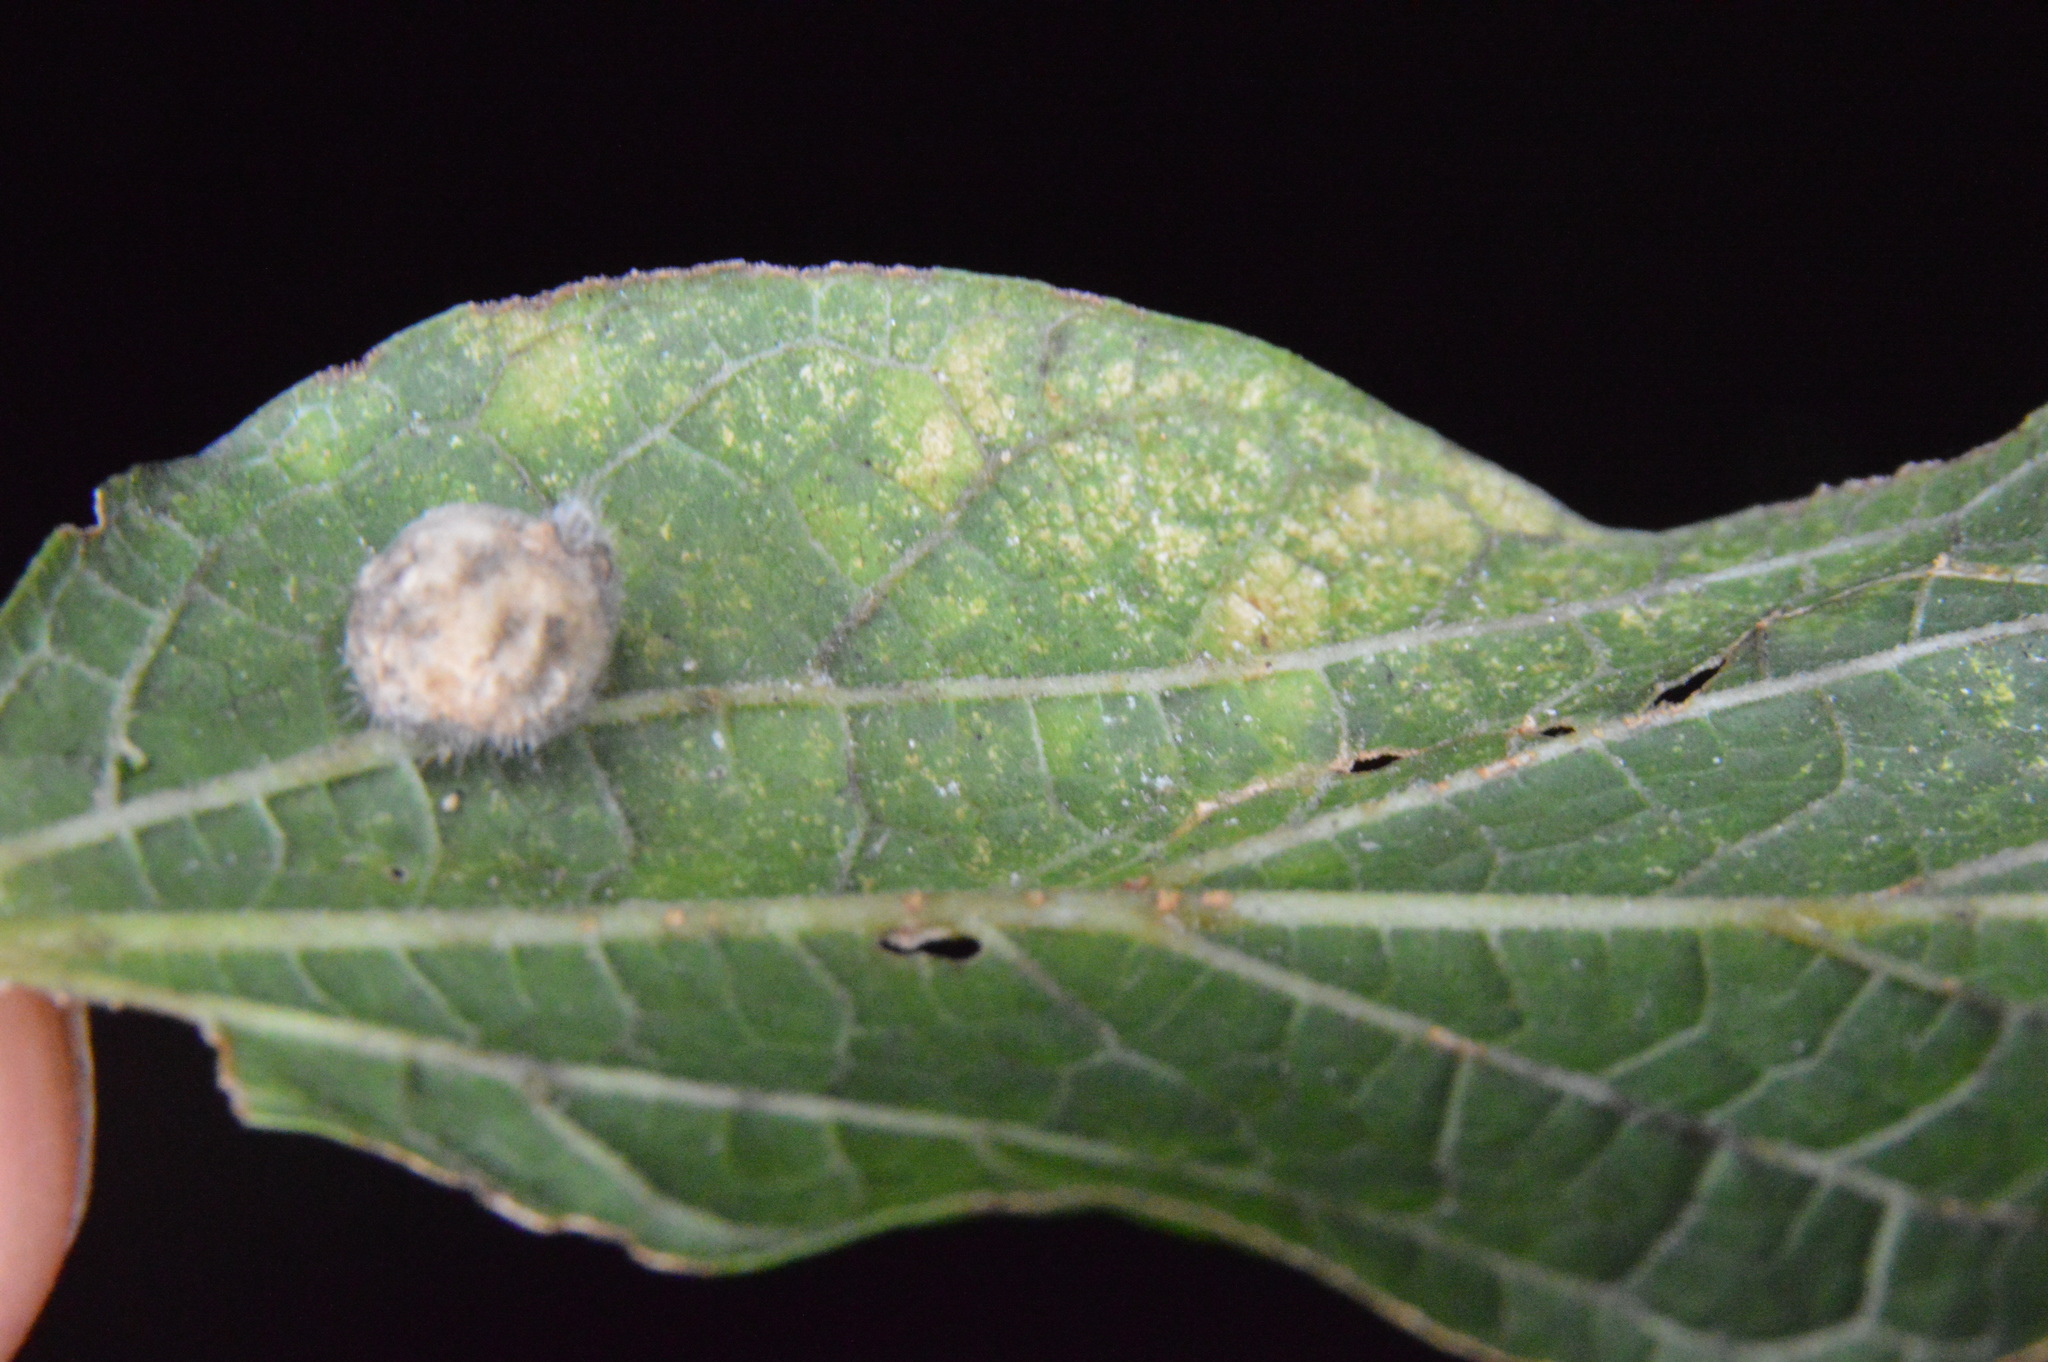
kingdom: Animalia
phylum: Arthropoda
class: Insecta
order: Diptera
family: Cecidomyiidae
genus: Celticecis
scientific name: Celticecis pubescens
